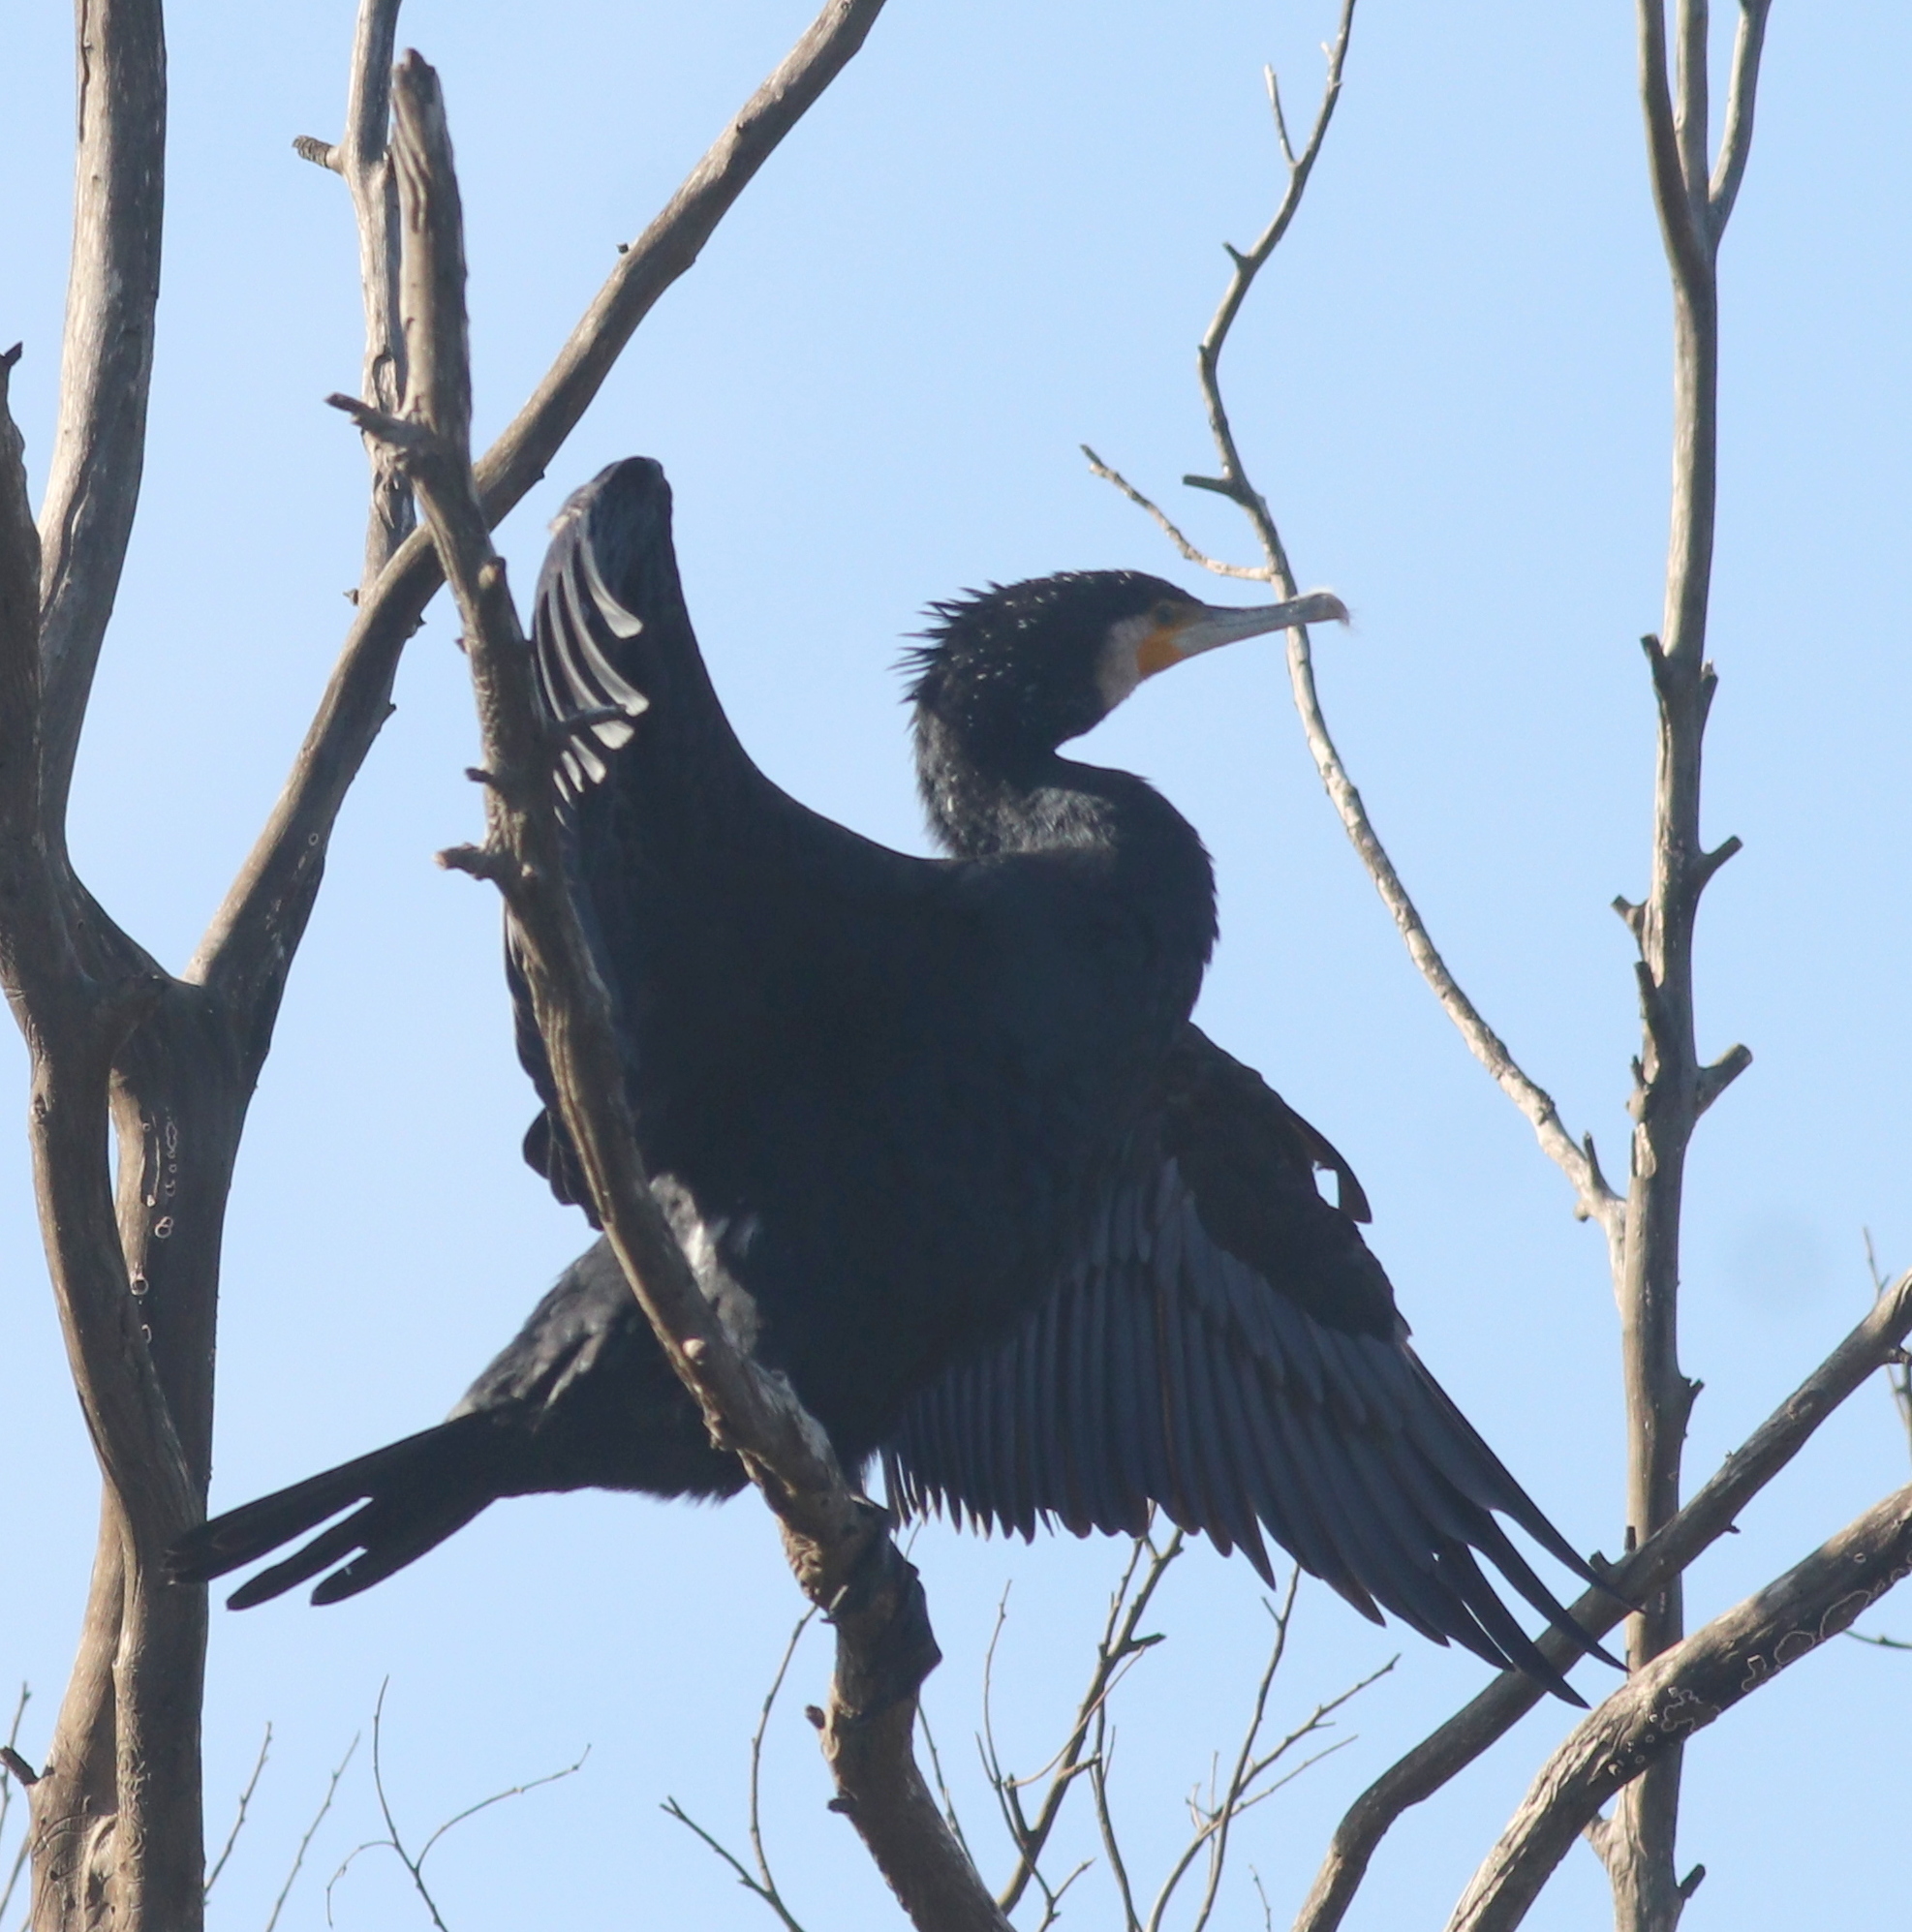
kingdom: Animalia
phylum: Chordata
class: Aves
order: Suliformes
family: Phalacrocoracidae
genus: Phalacrocorax
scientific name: Phalacrocorax carbo
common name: Great cormorant
